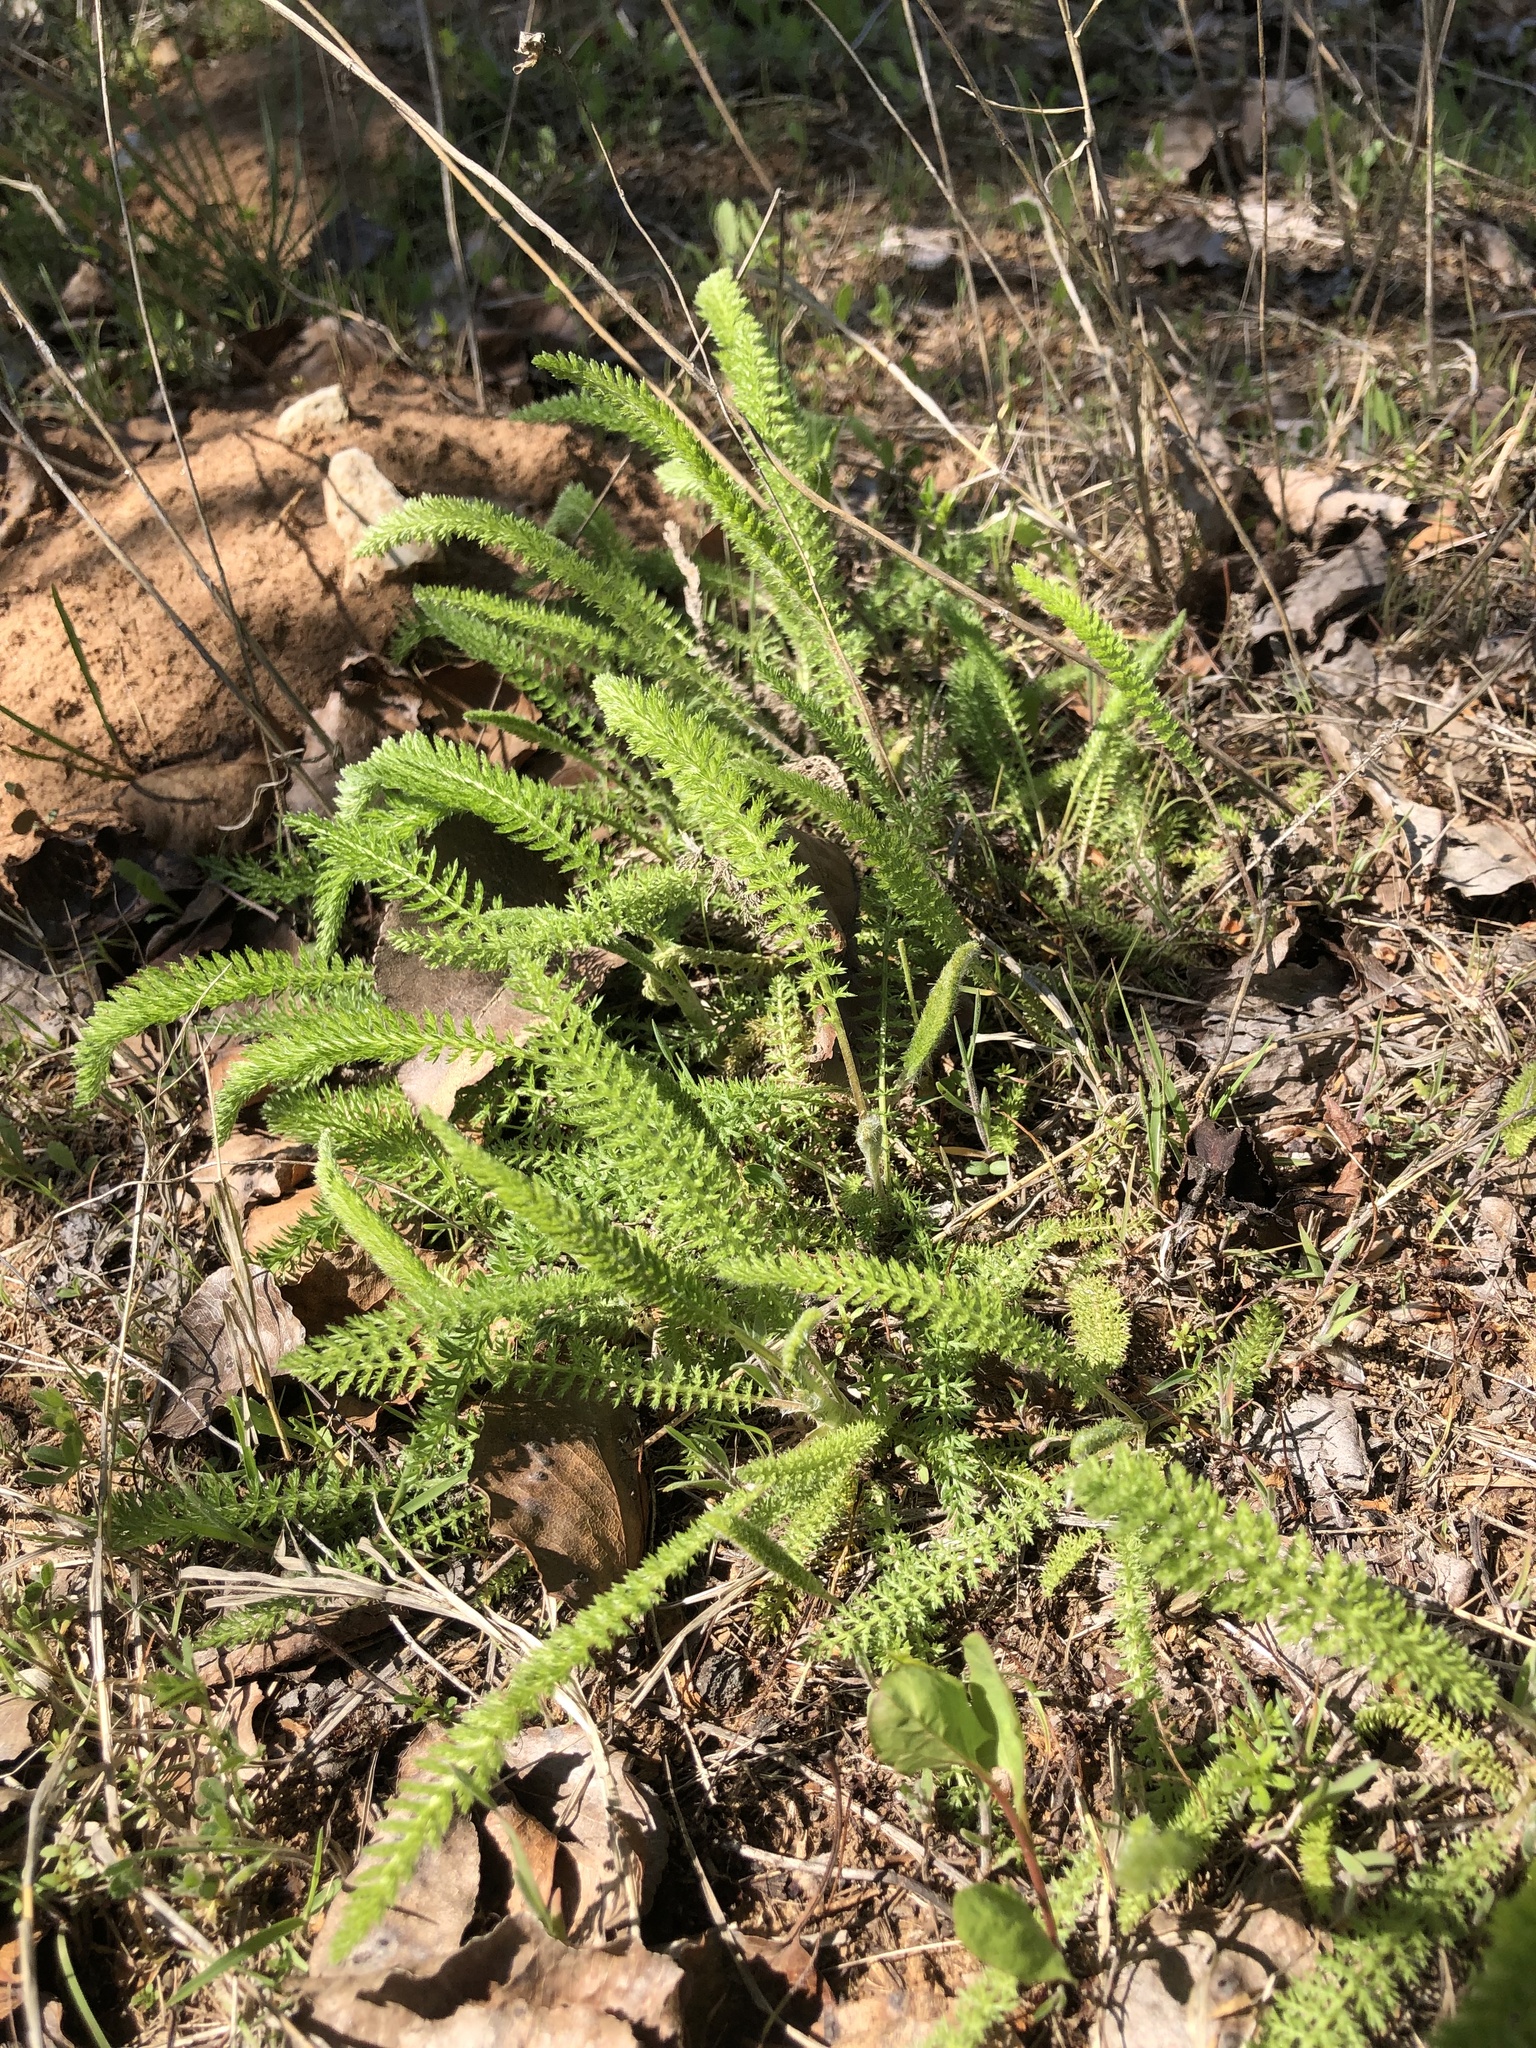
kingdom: Plantae
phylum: Tracheophyta
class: Magnoliopsida
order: Asterales
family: Asteraceae
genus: Achillea
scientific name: Achillea millefolium
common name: Yarrow
